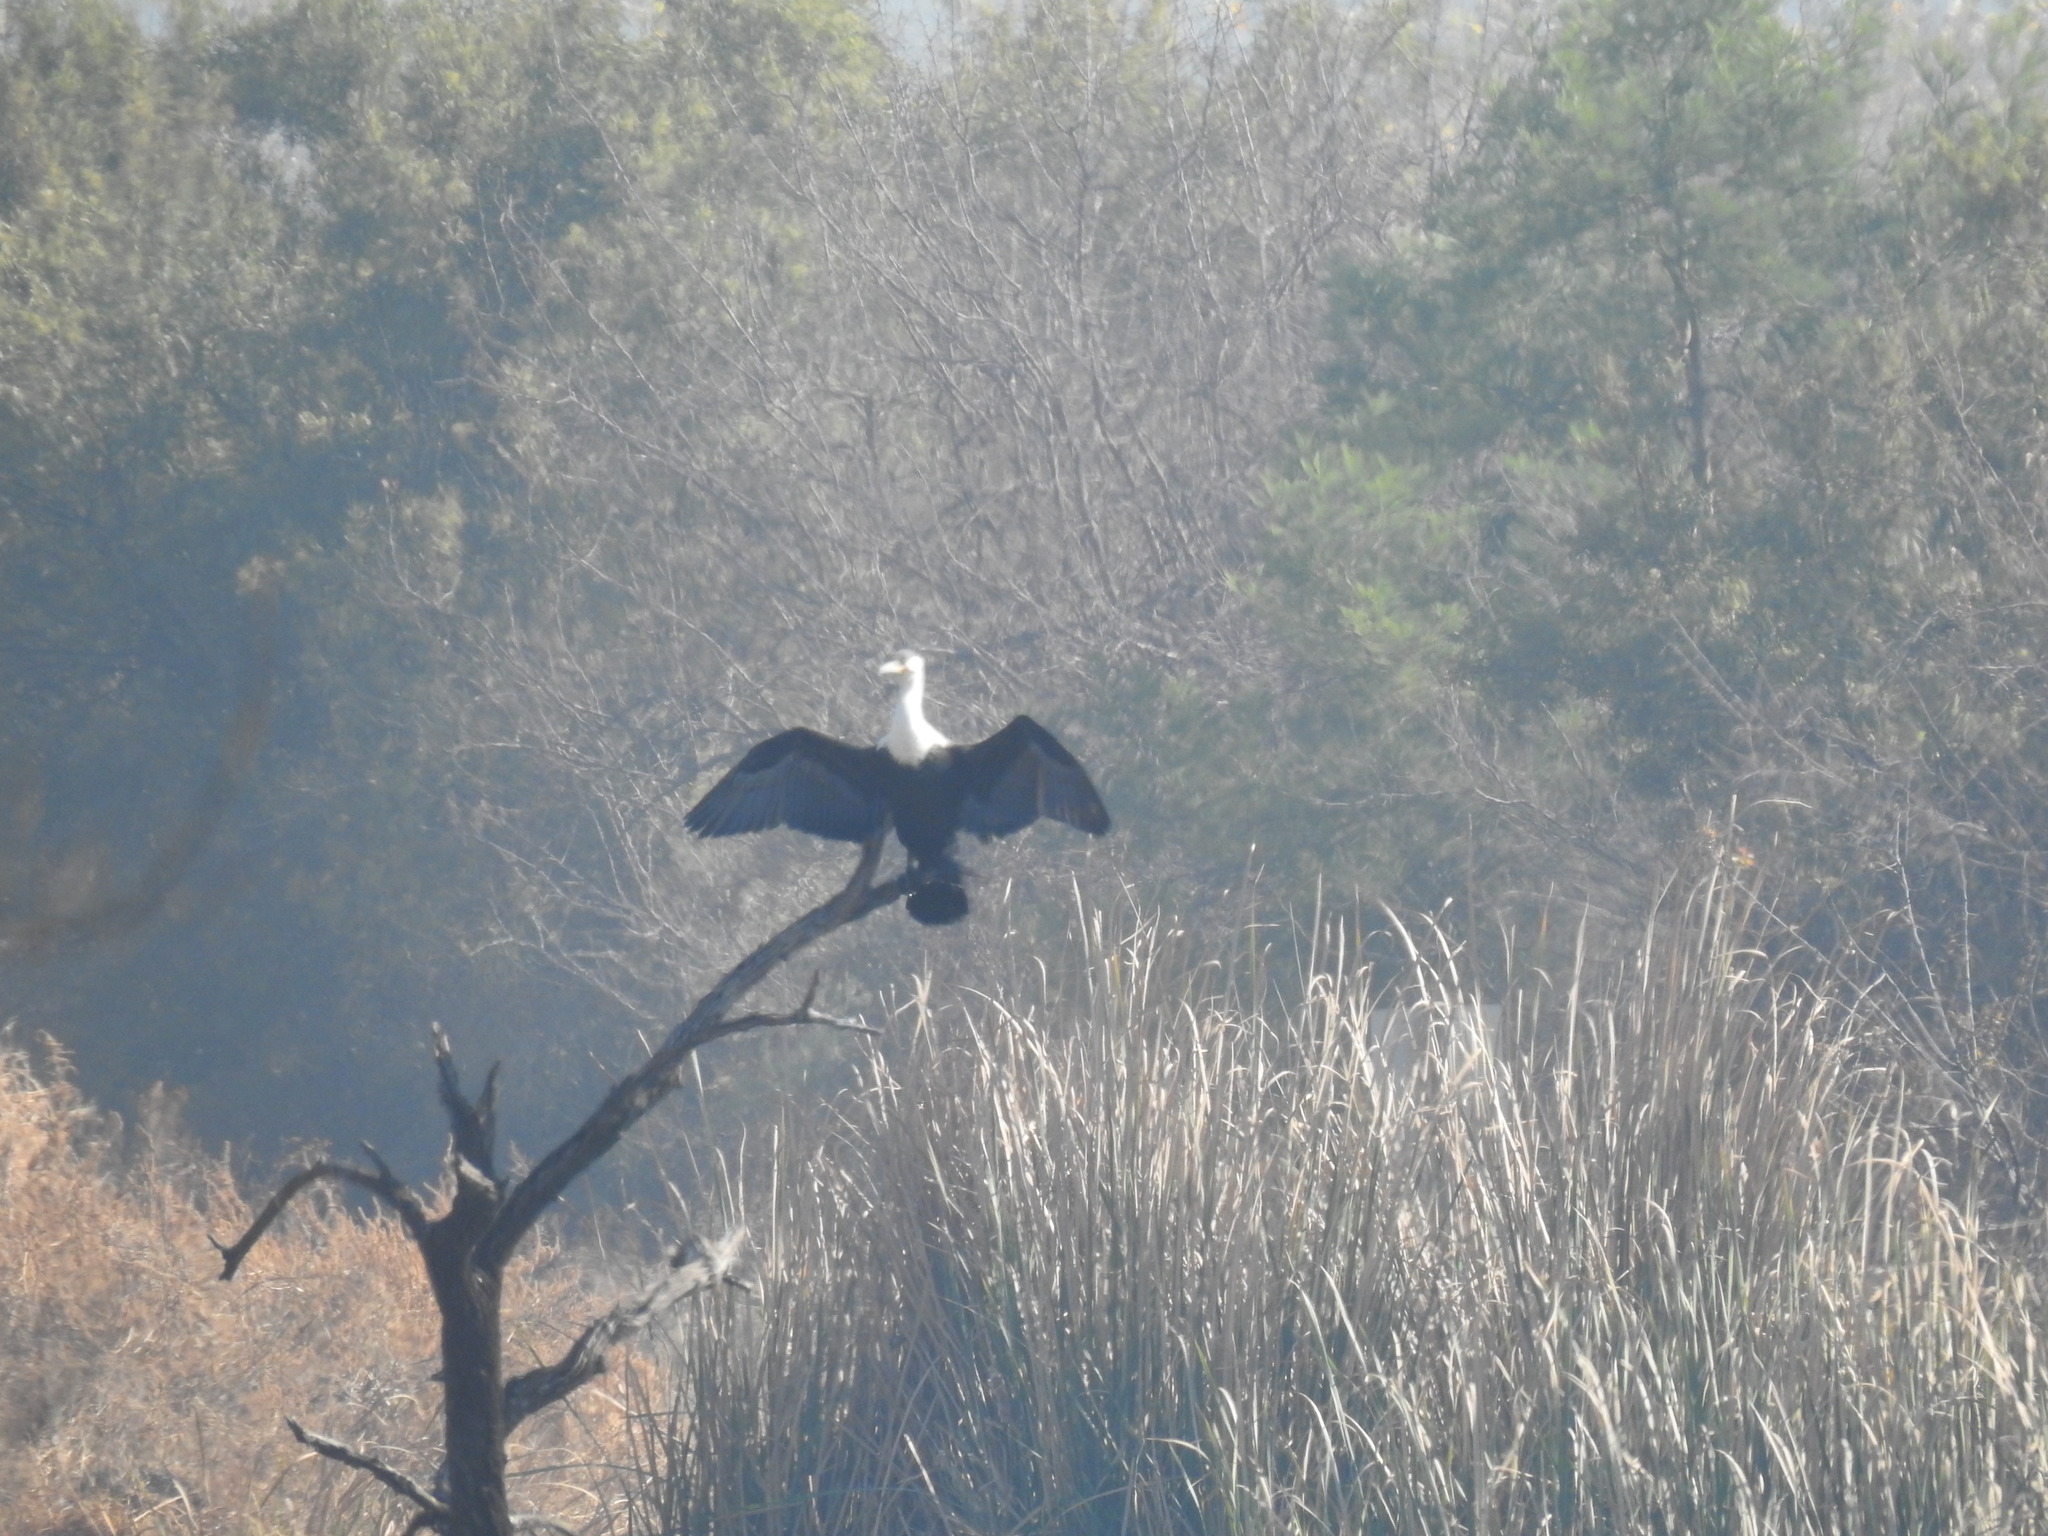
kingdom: Animalia
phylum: Chordata
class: Aves
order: Suliformes
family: Phalacrocoracidae
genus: Phalacrocorax
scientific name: Phalacrocorax carbo
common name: Great cormorant
